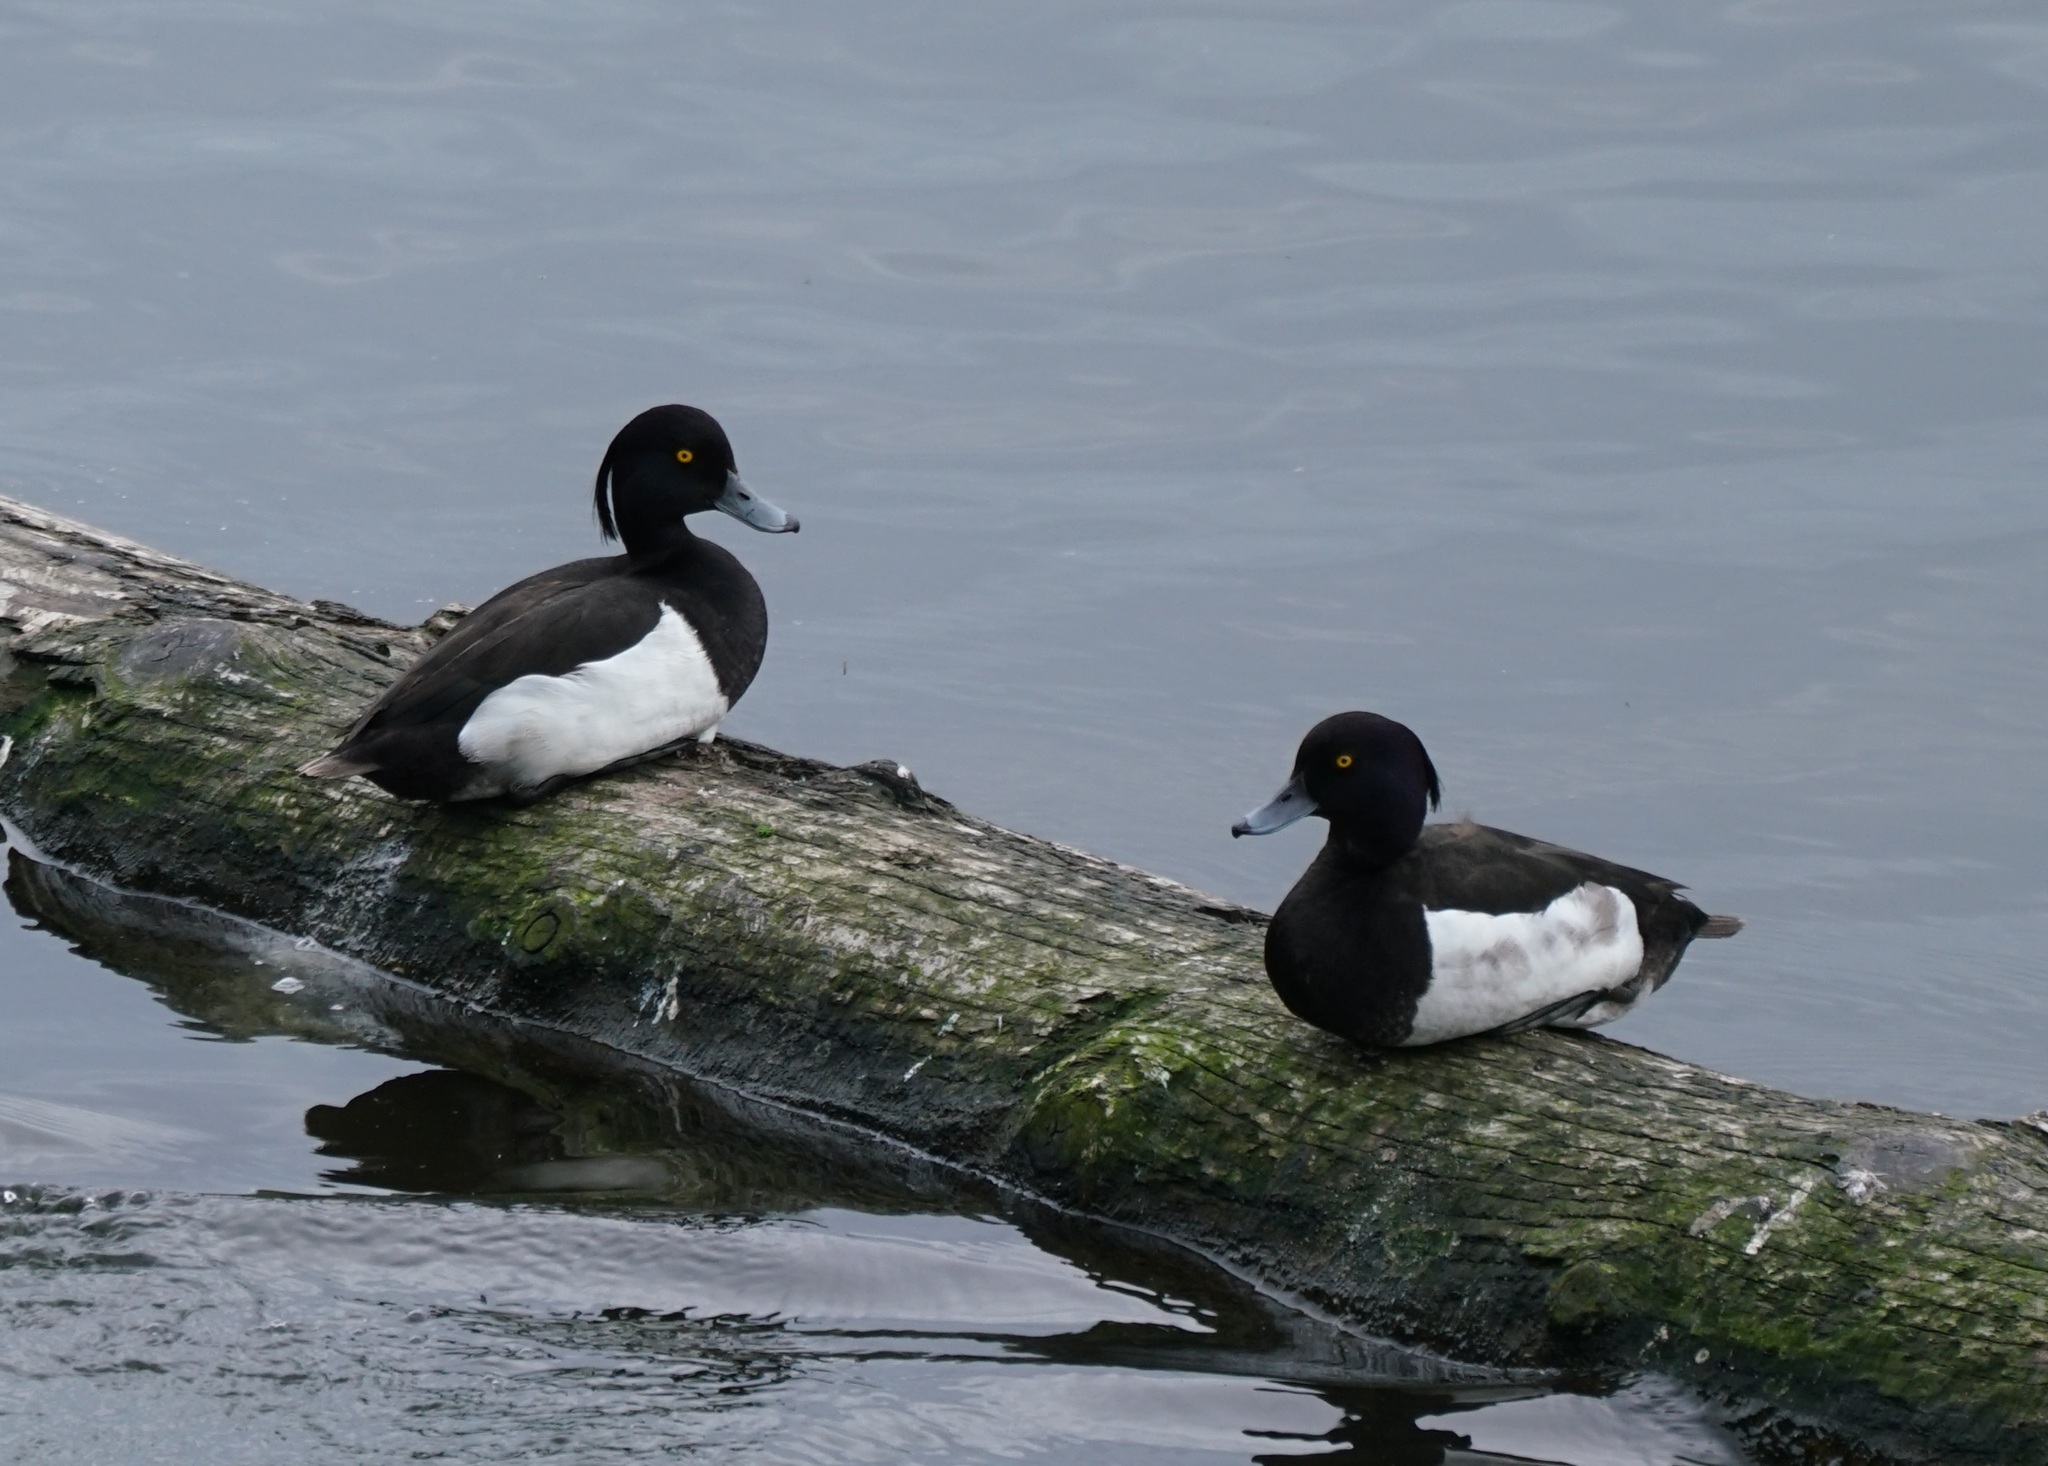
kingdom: Animalia
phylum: Chordata
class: Aves
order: Anseriformes
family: Anatidae
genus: Aythya
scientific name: Aythya fuligula
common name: Tufted duck
